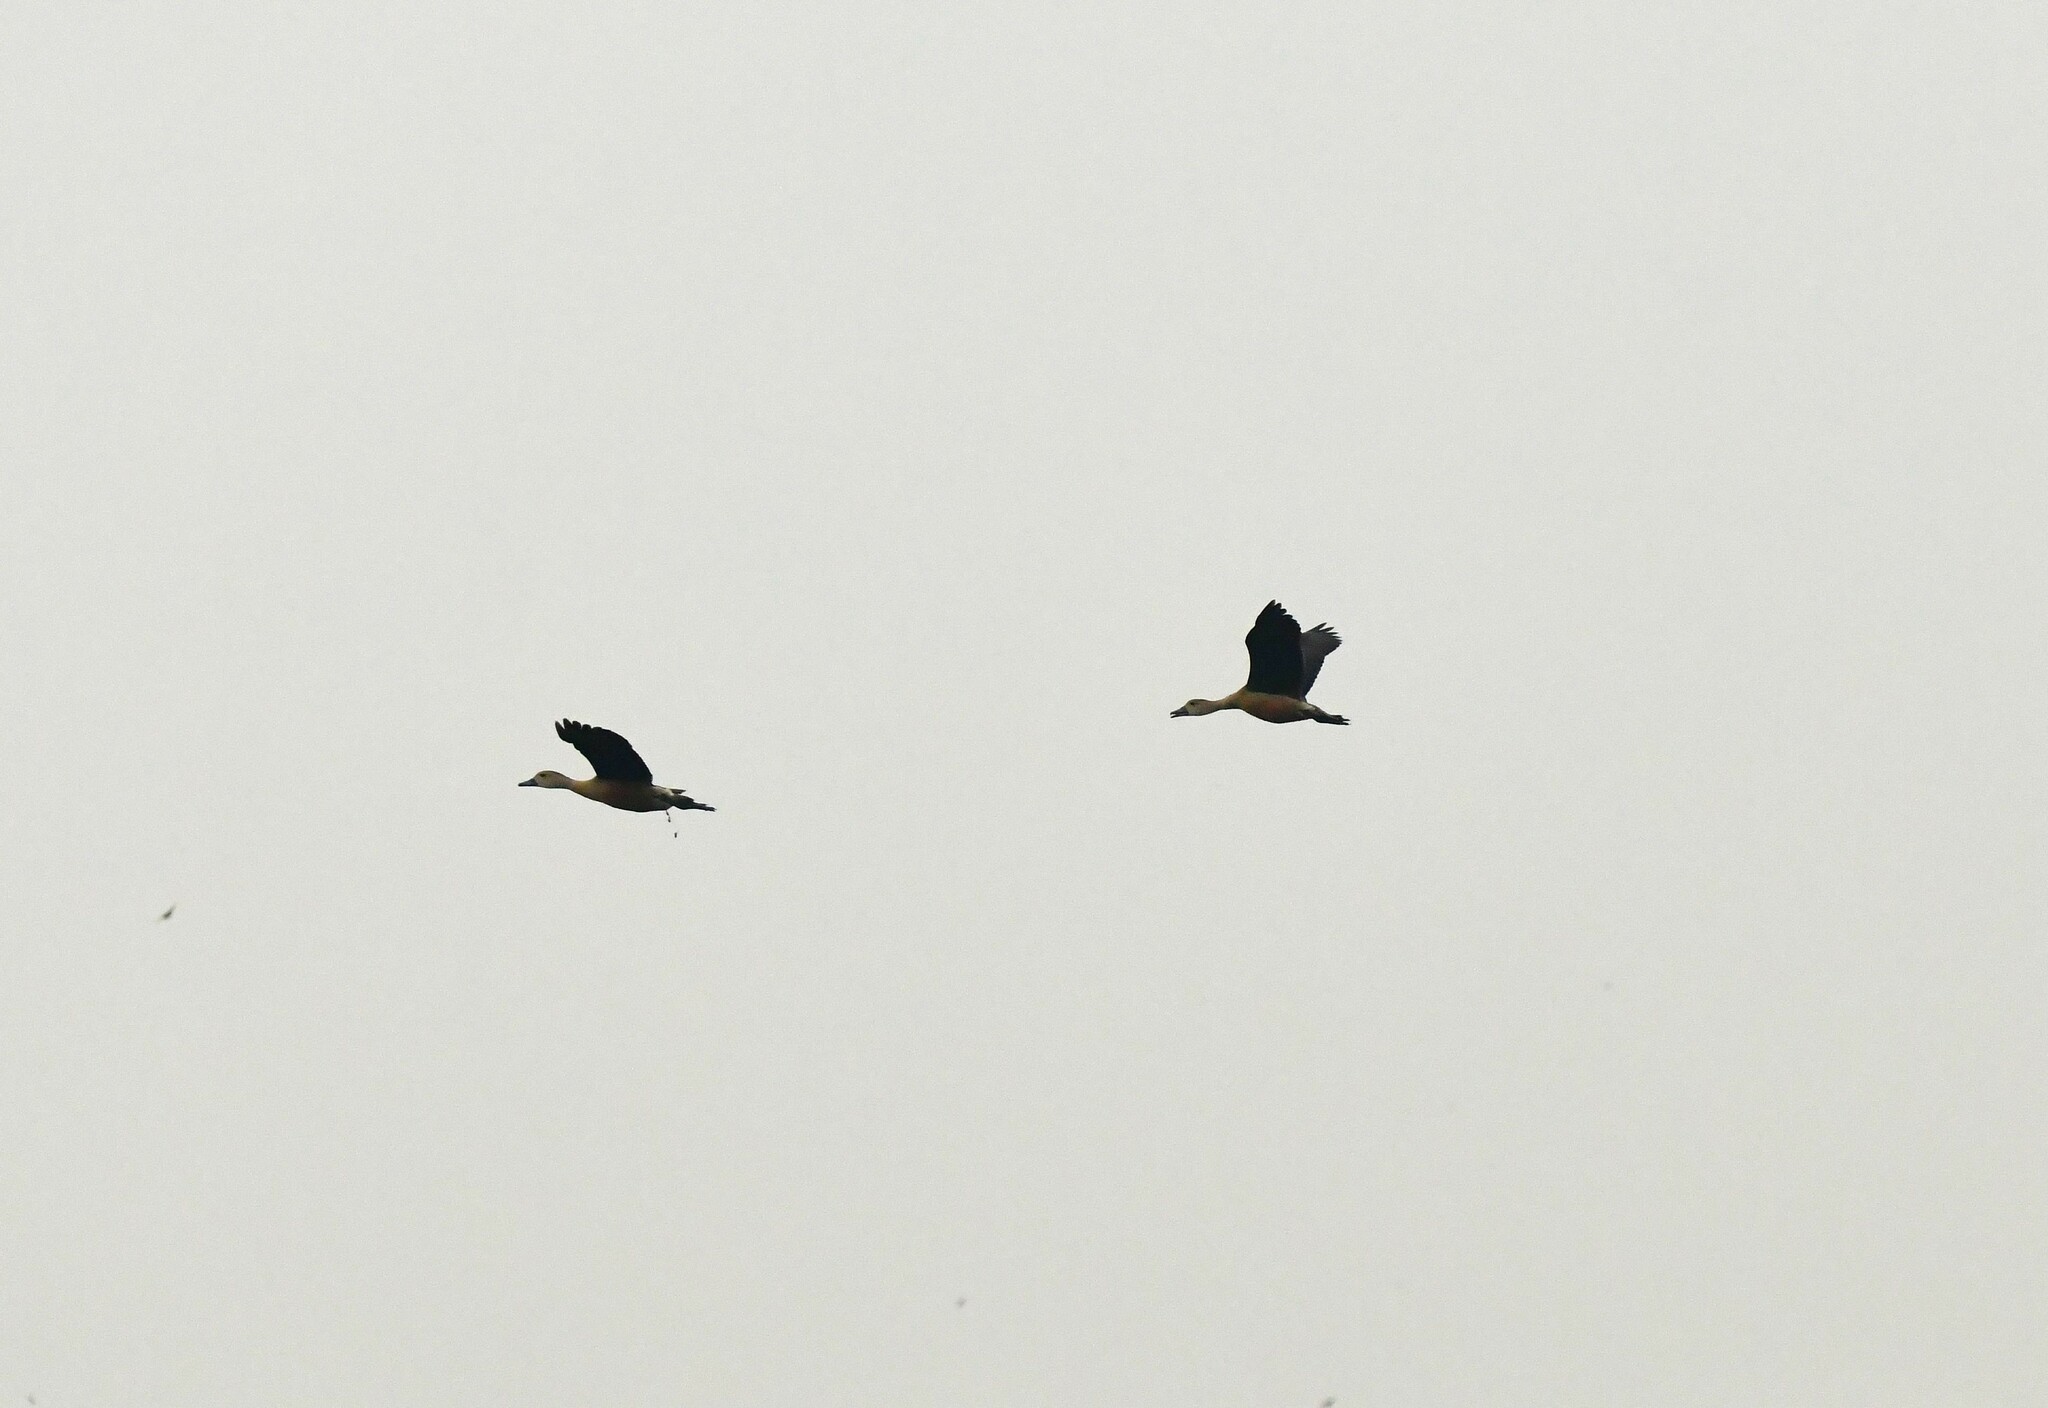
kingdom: Animalia
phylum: Chordata
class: Aves
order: Anseriformes
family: Anatidae
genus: Dendrocygna
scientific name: Dendrocygna javanica
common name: Lesser whistling-duck
